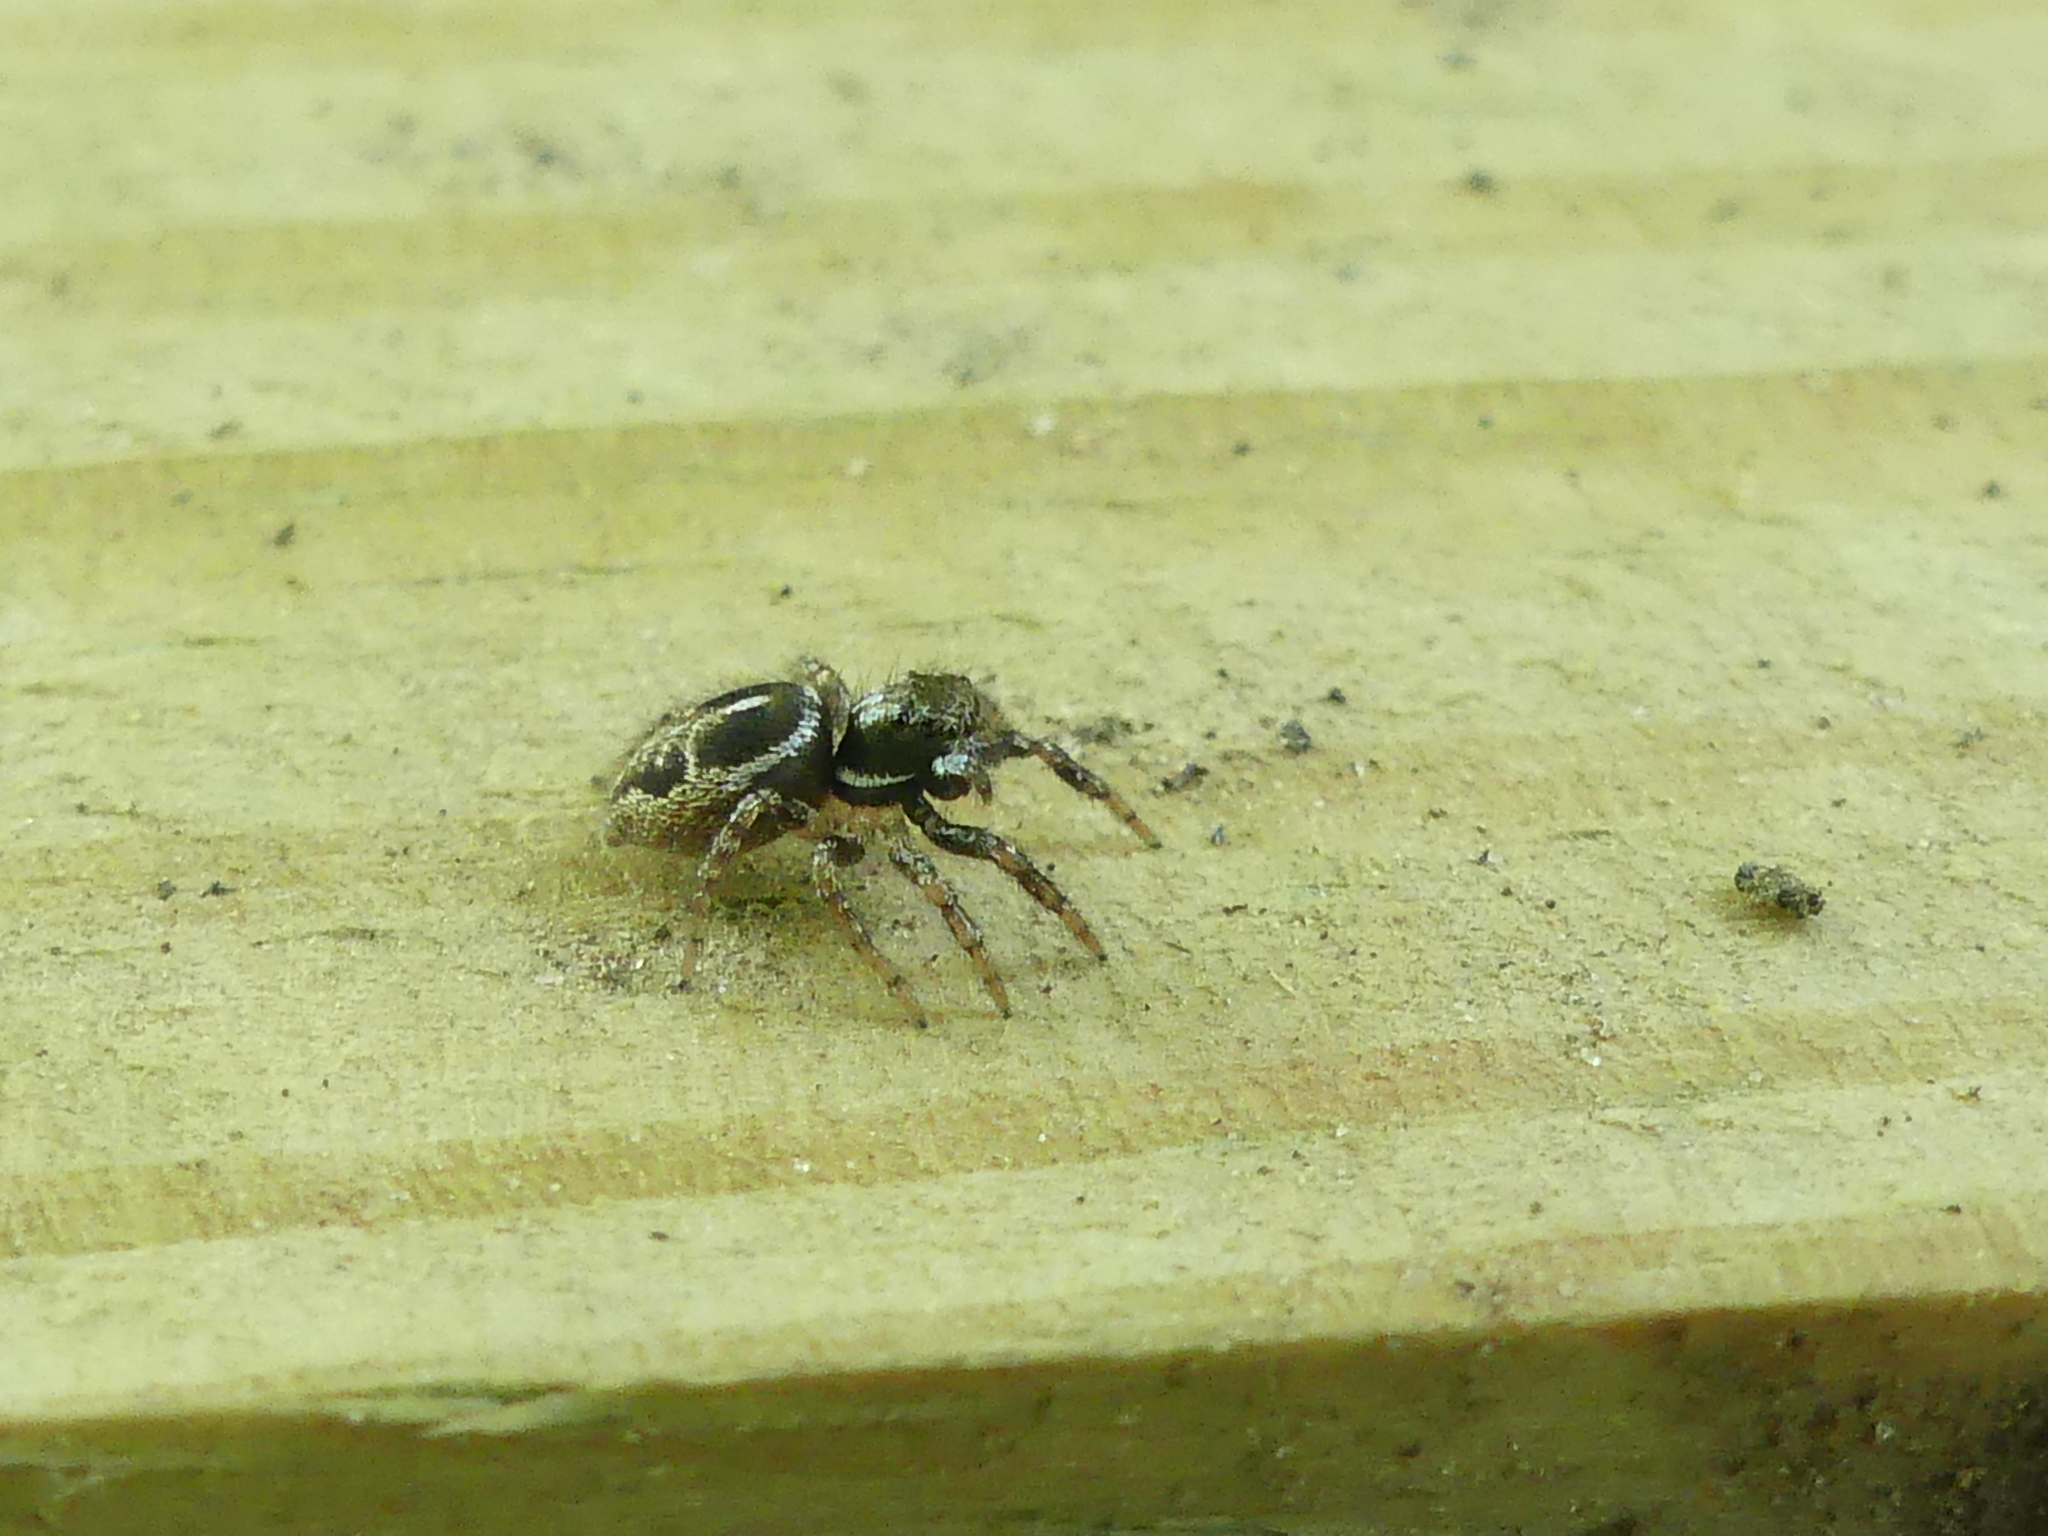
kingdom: Animalia
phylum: Arthropoda
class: Arachnida
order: Araneae
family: Salticidae
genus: Anasaitis
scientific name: Anasaitis canosa
